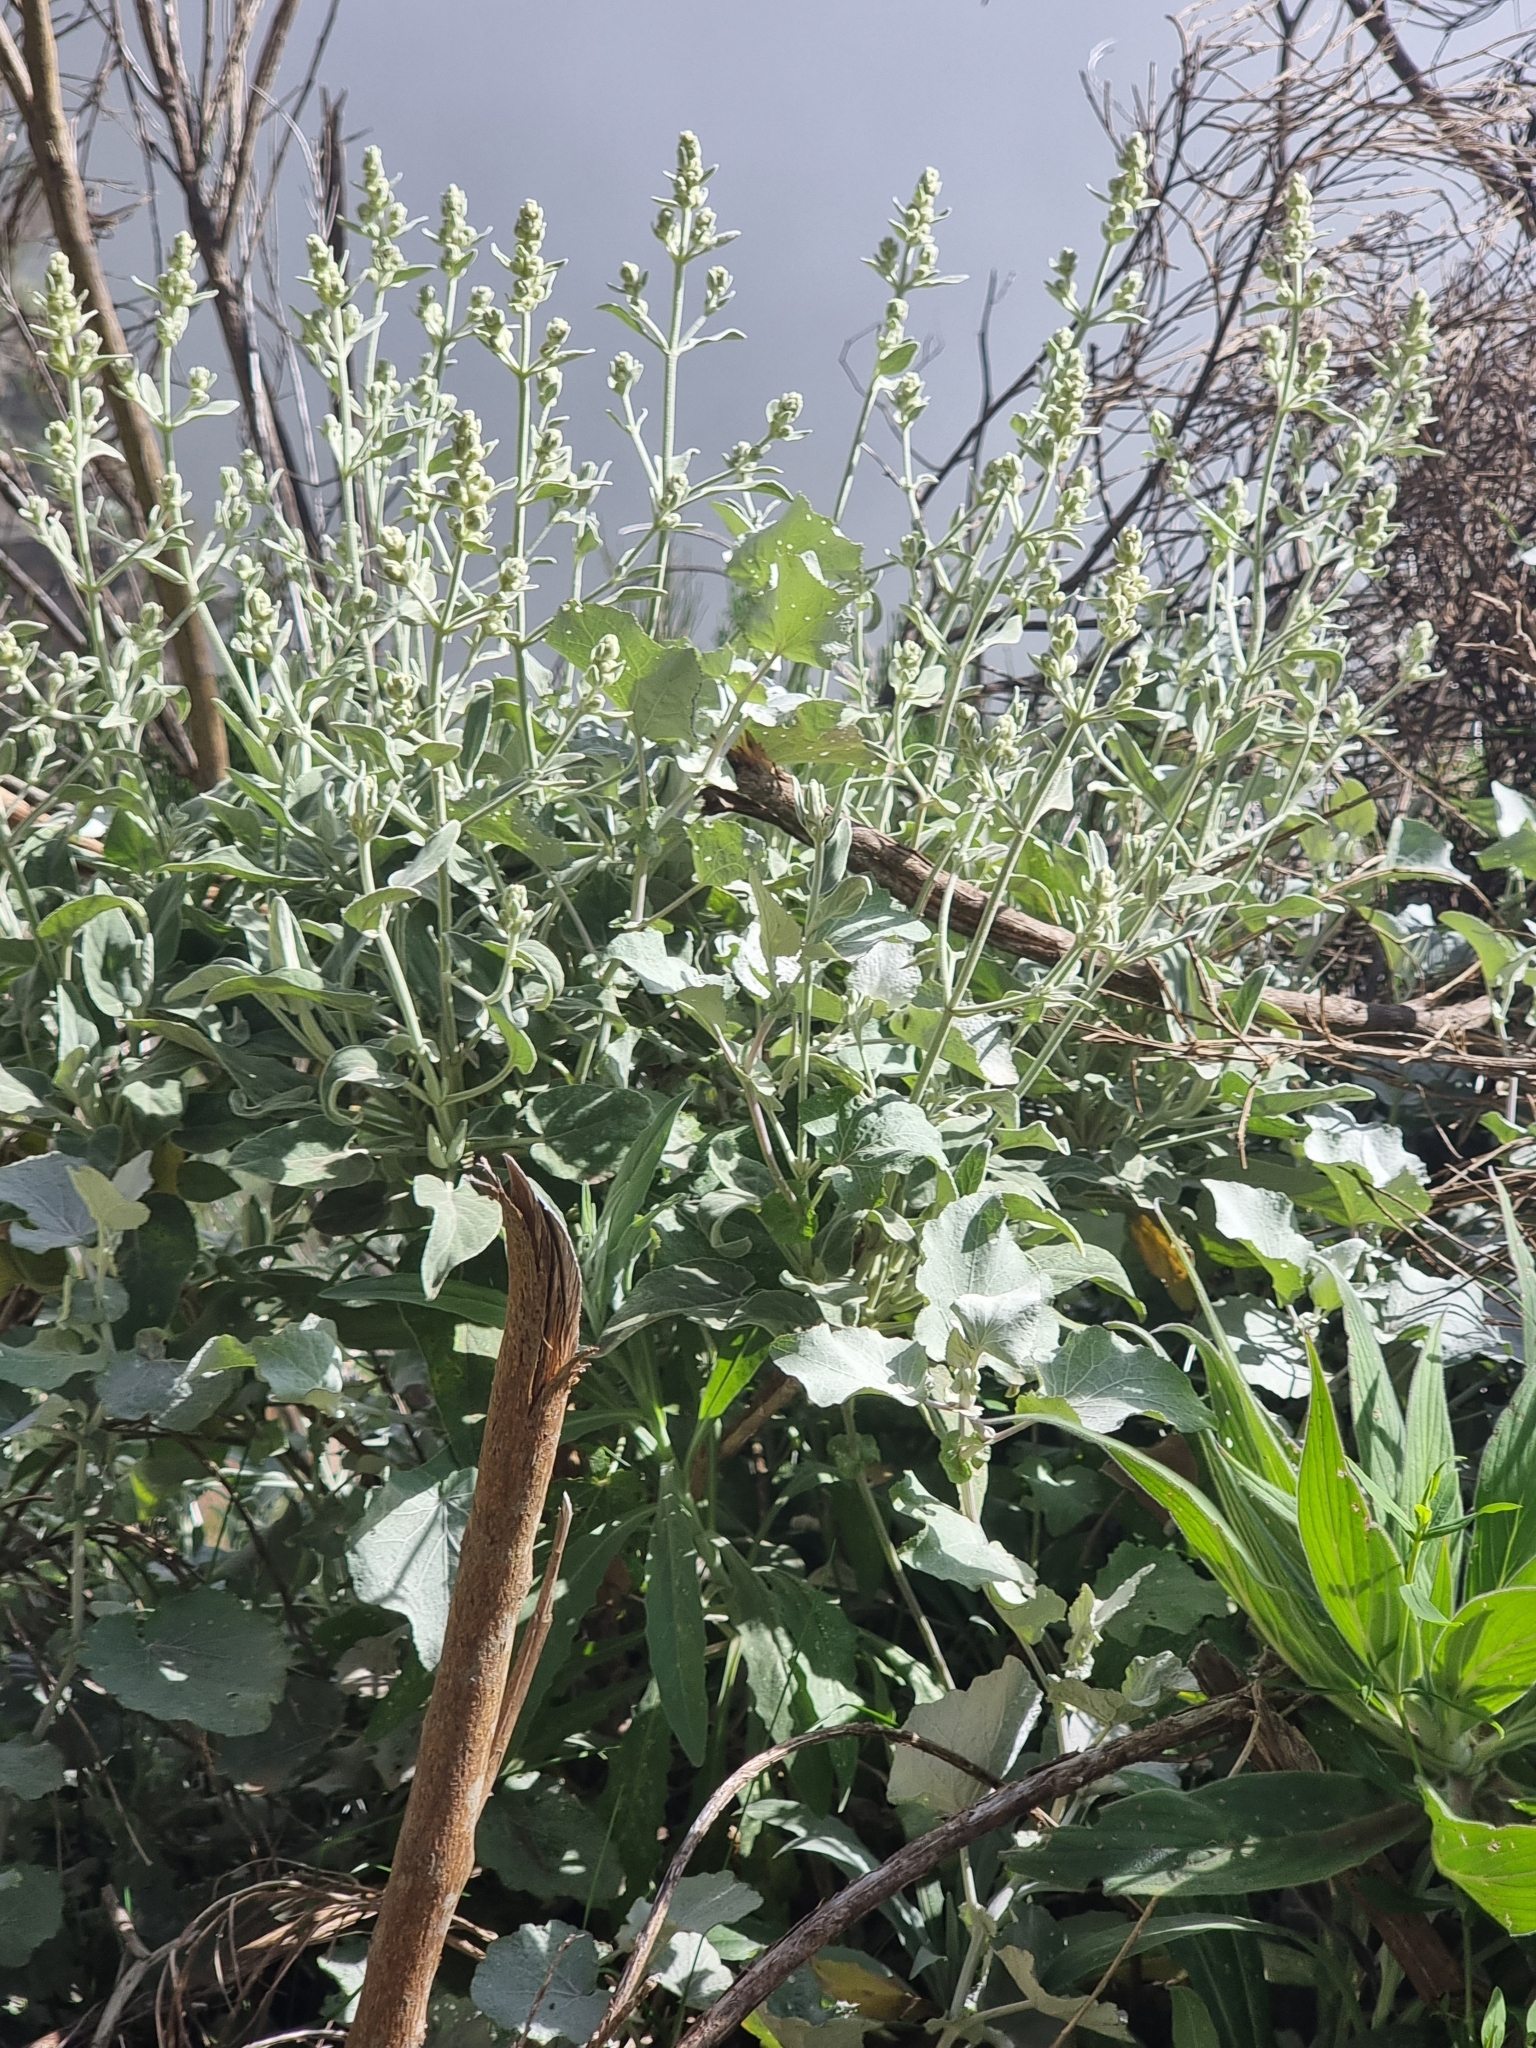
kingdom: Plantae
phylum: Tracheophyta
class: Magnoliopsida
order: Lamiales
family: Lamiaceae
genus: Sideritis
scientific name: Sideritis candicans
